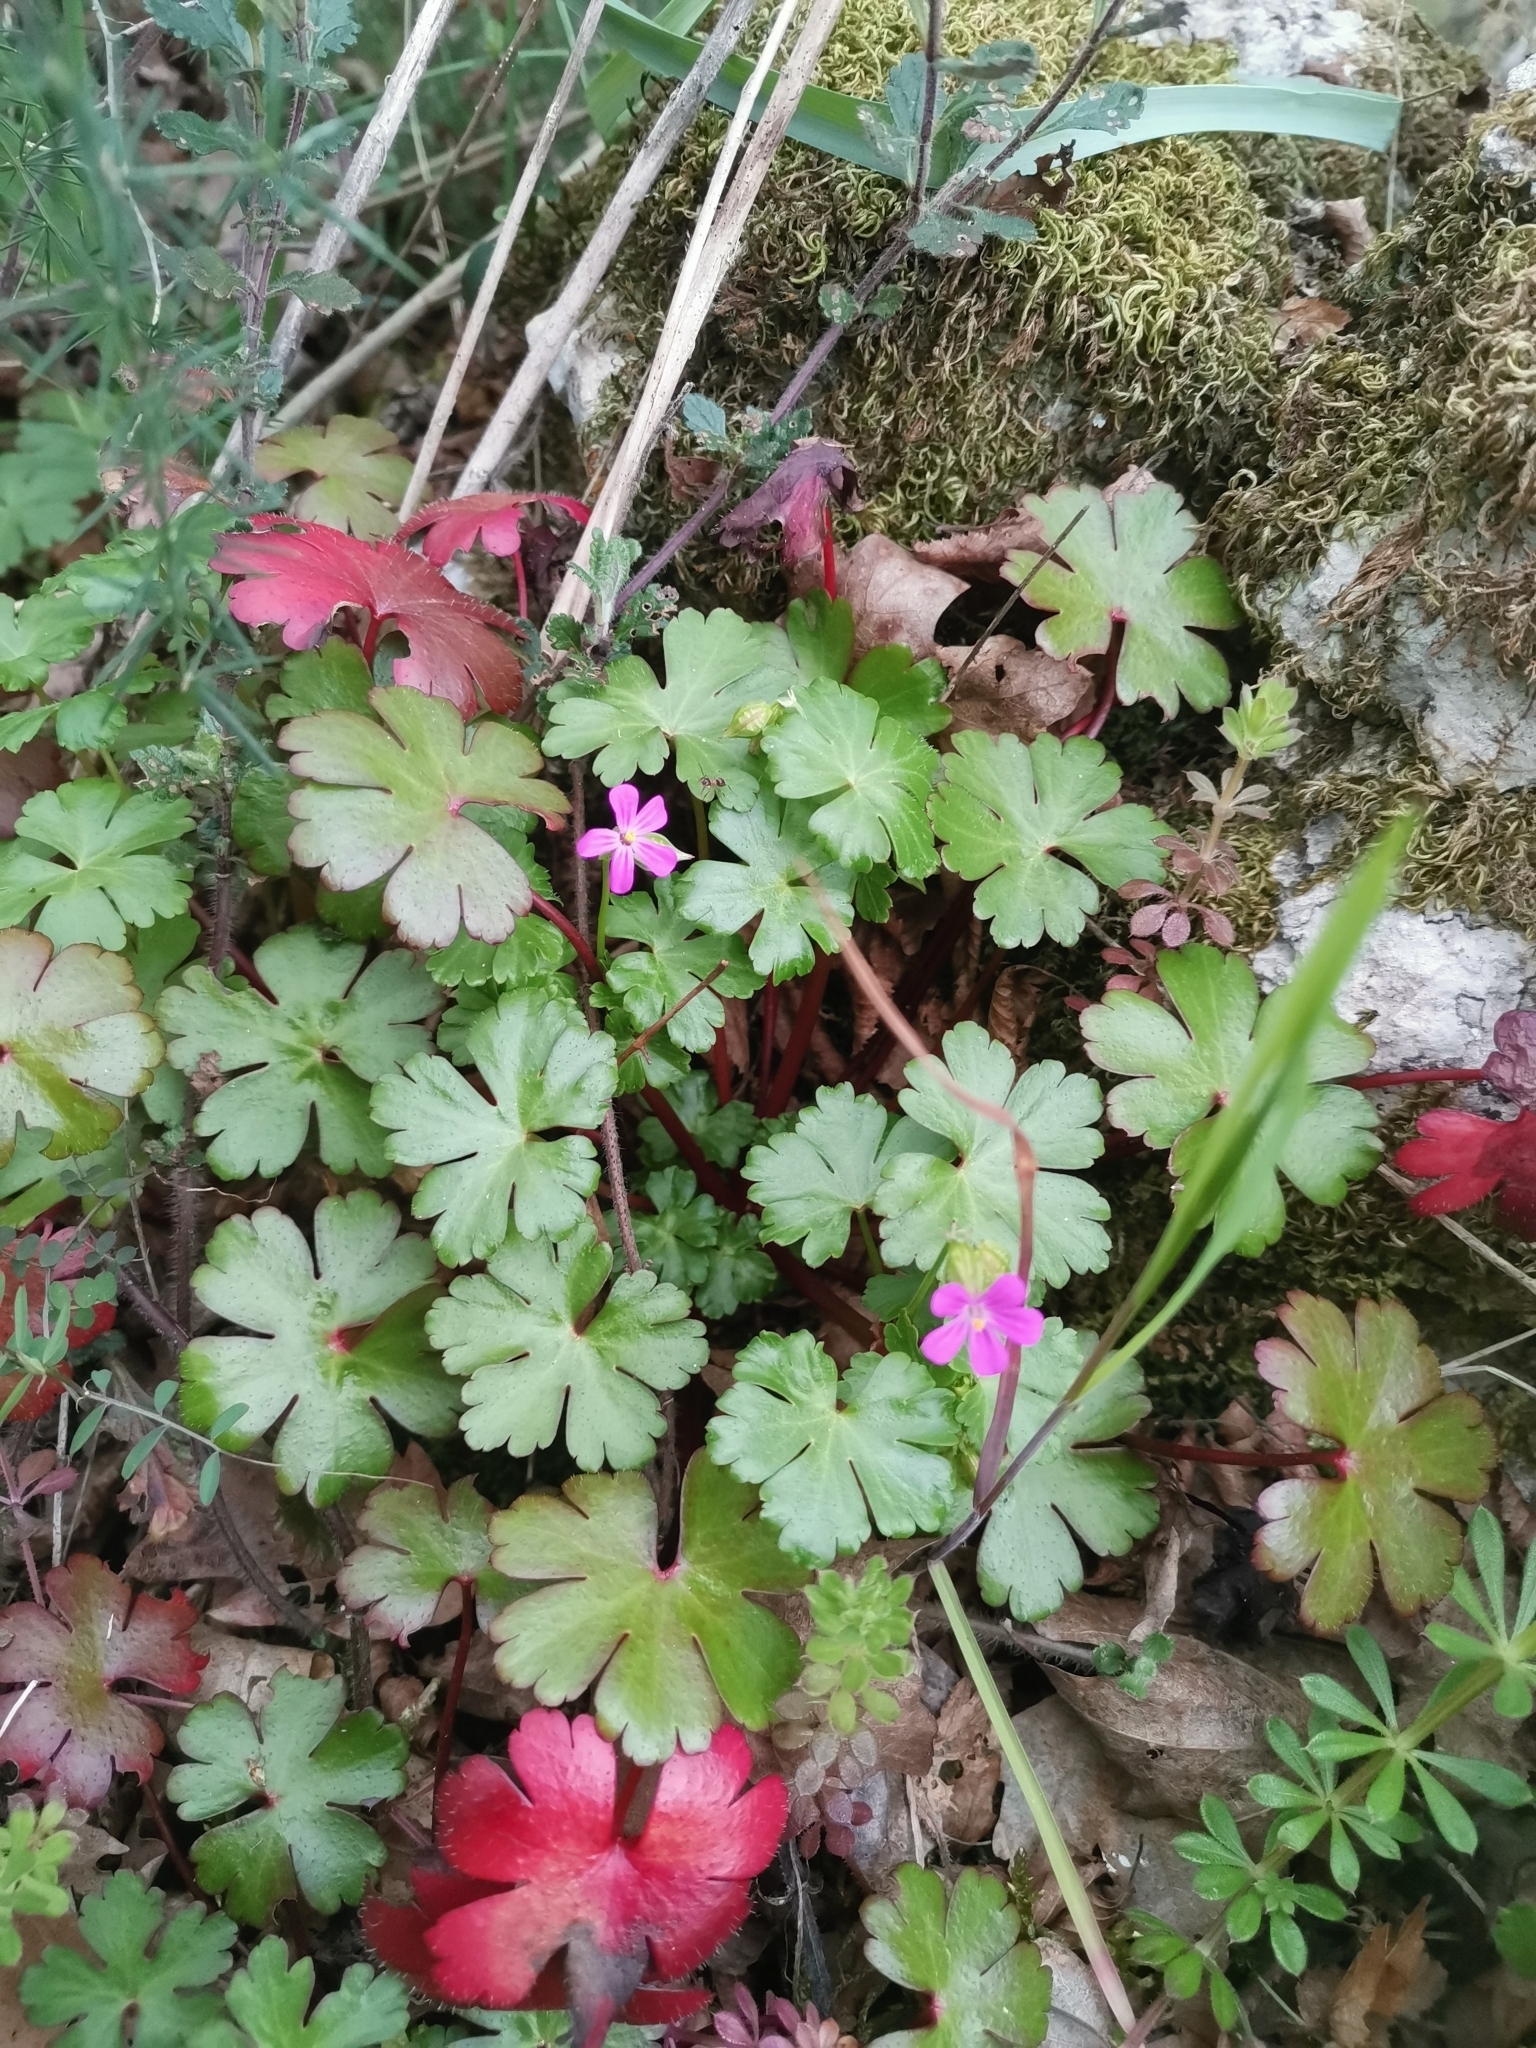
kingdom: Plantae
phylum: Tracheophyta
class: Magnoliopsida
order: Geraniales
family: Geraniaceae
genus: Geranium
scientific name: Geranium lucidum
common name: Shining crane's-bill
